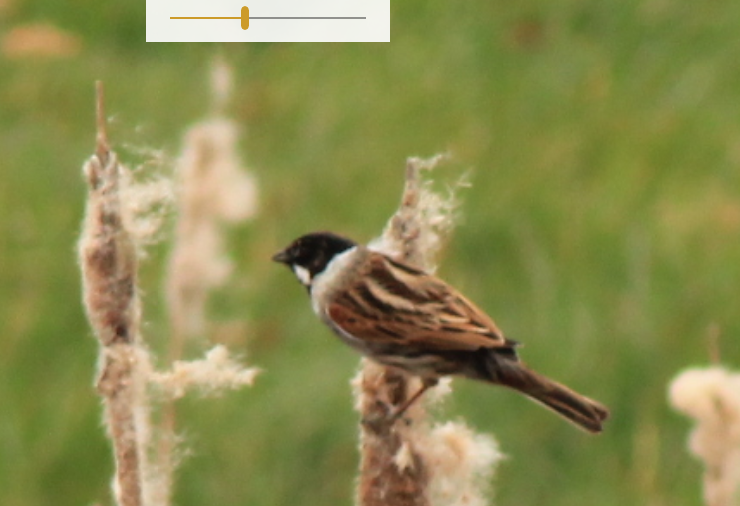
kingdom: Animalia
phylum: Chordata
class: Aves
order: Passeriformes
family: Emberizidae
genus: Emberiza
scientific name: Emberiza schoeniclus
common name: Reed bunting
